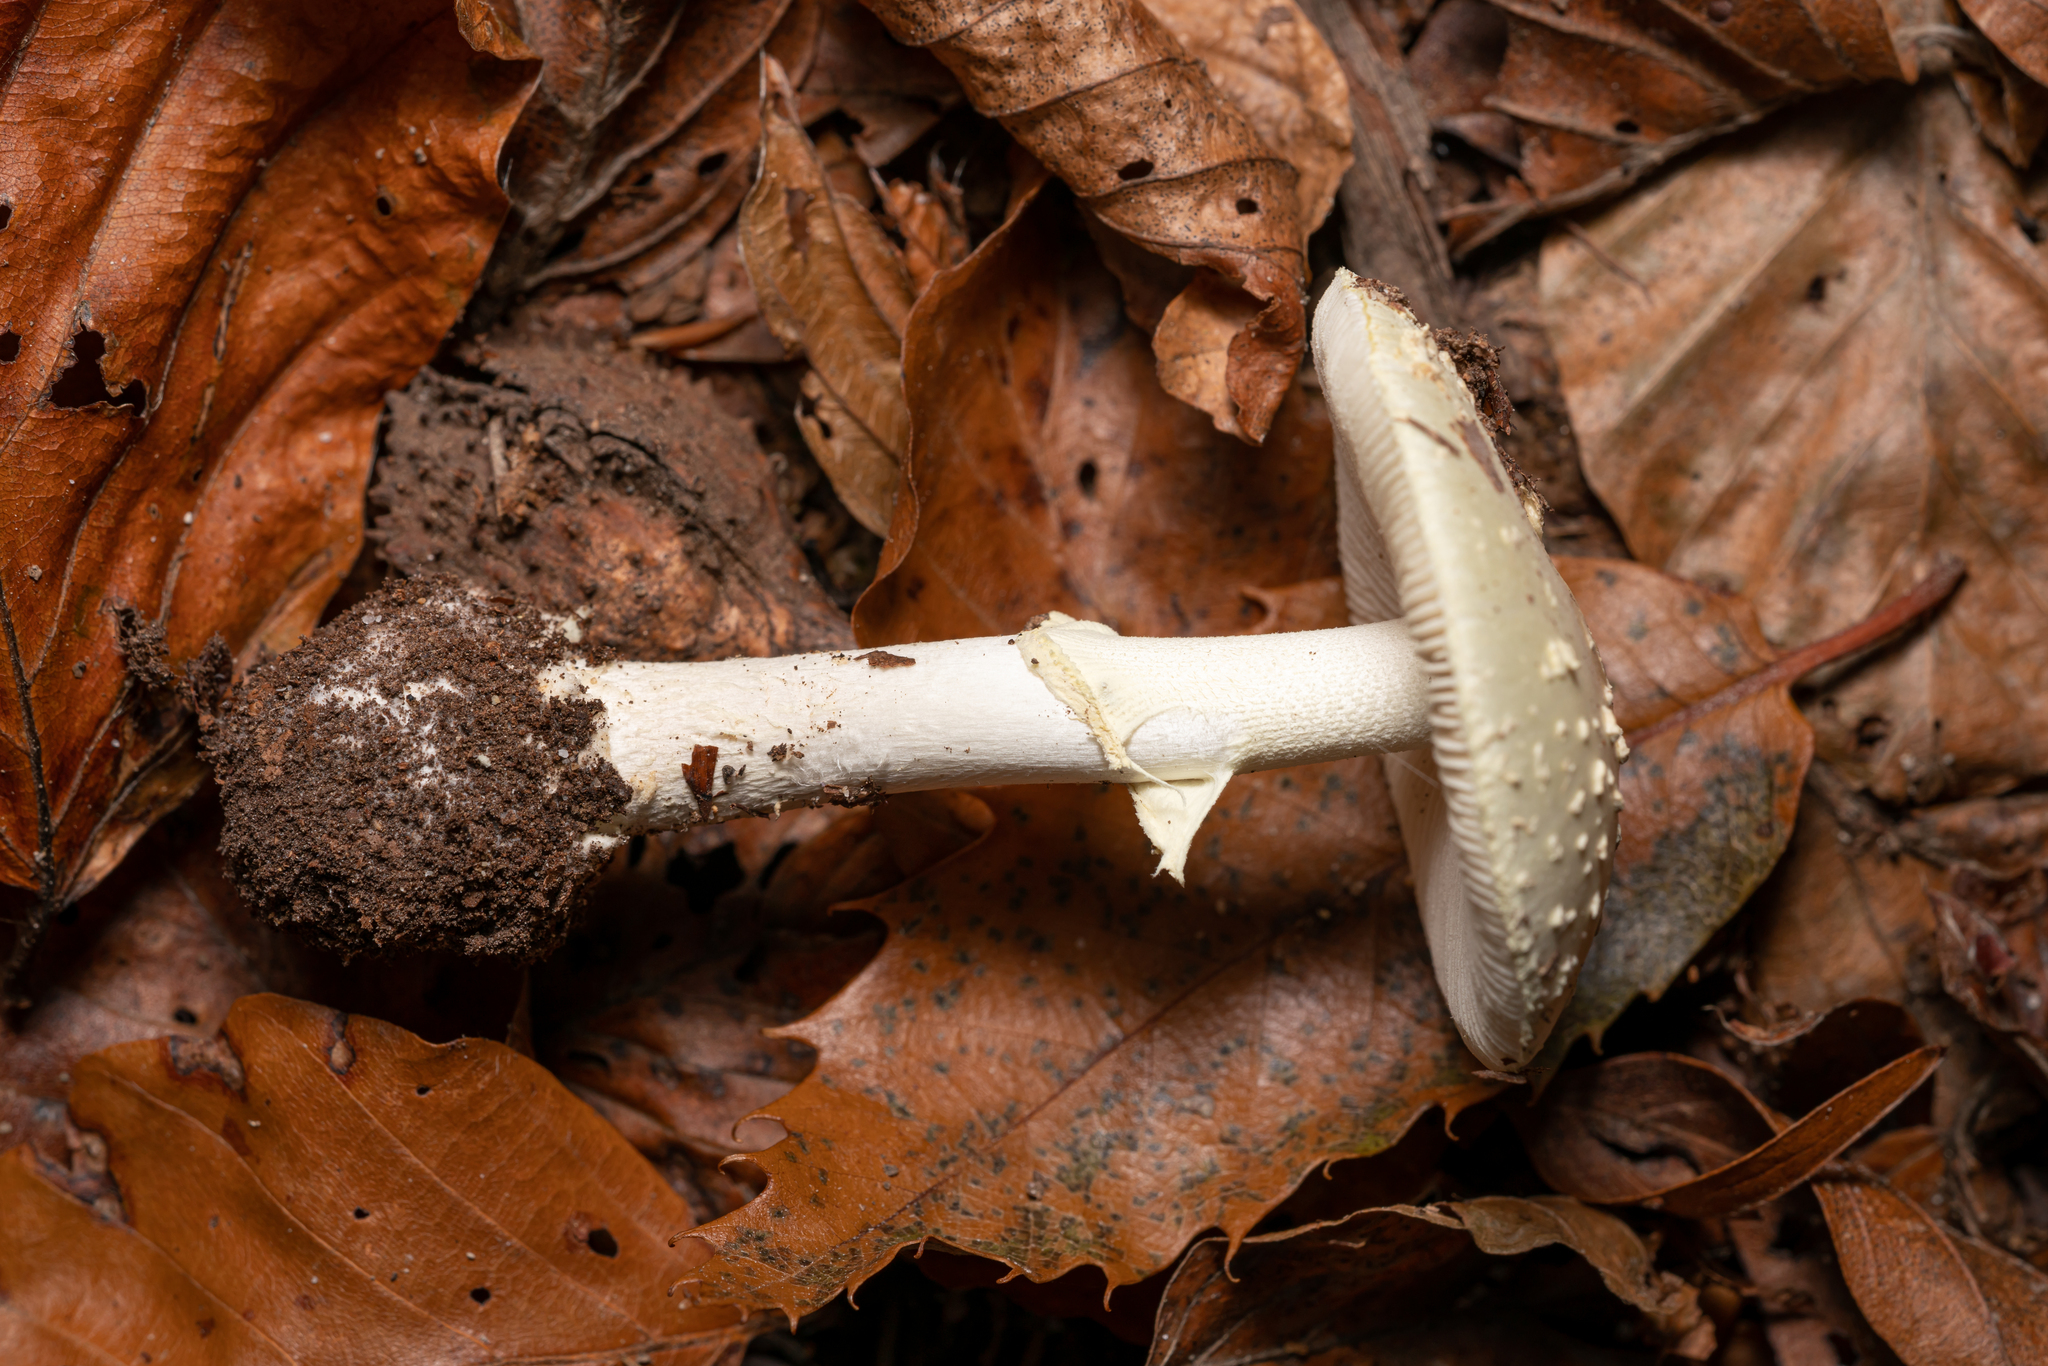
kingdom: Fungi
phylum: Basidiomycota
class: Agaricomycetes
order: Agaricales
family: Amanitaceae
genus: Amanita
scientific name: Amanita citrina
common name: False death-cap
